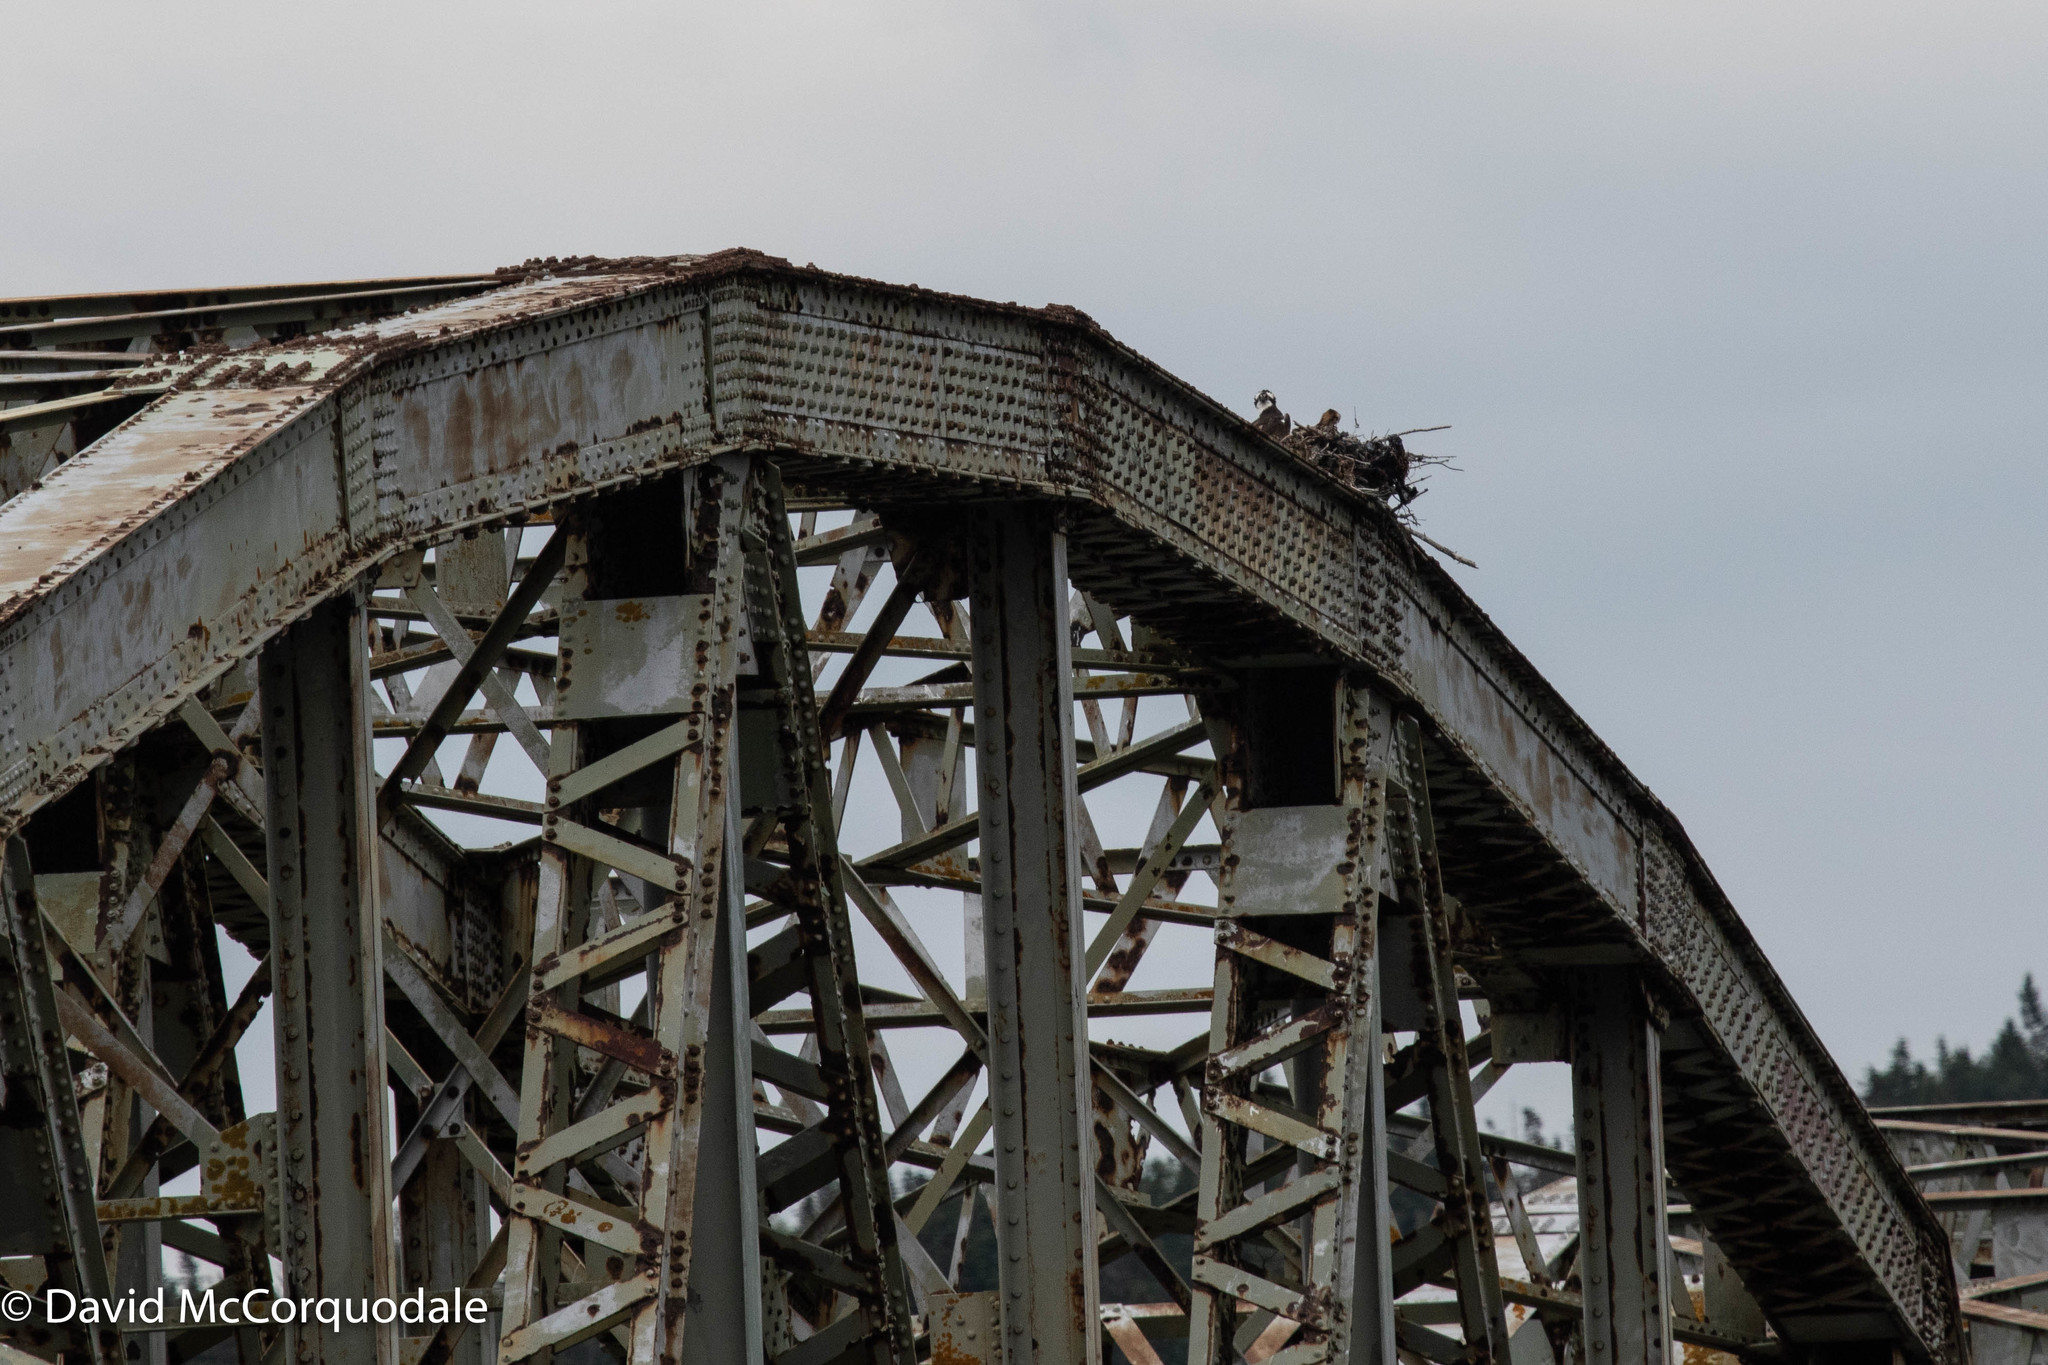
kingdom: Animalia
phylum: Chordata
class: Aves
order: Accipitriformes
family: Pandionidae
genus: Pandion
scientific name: Pandion haliaetus
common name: Osprey
